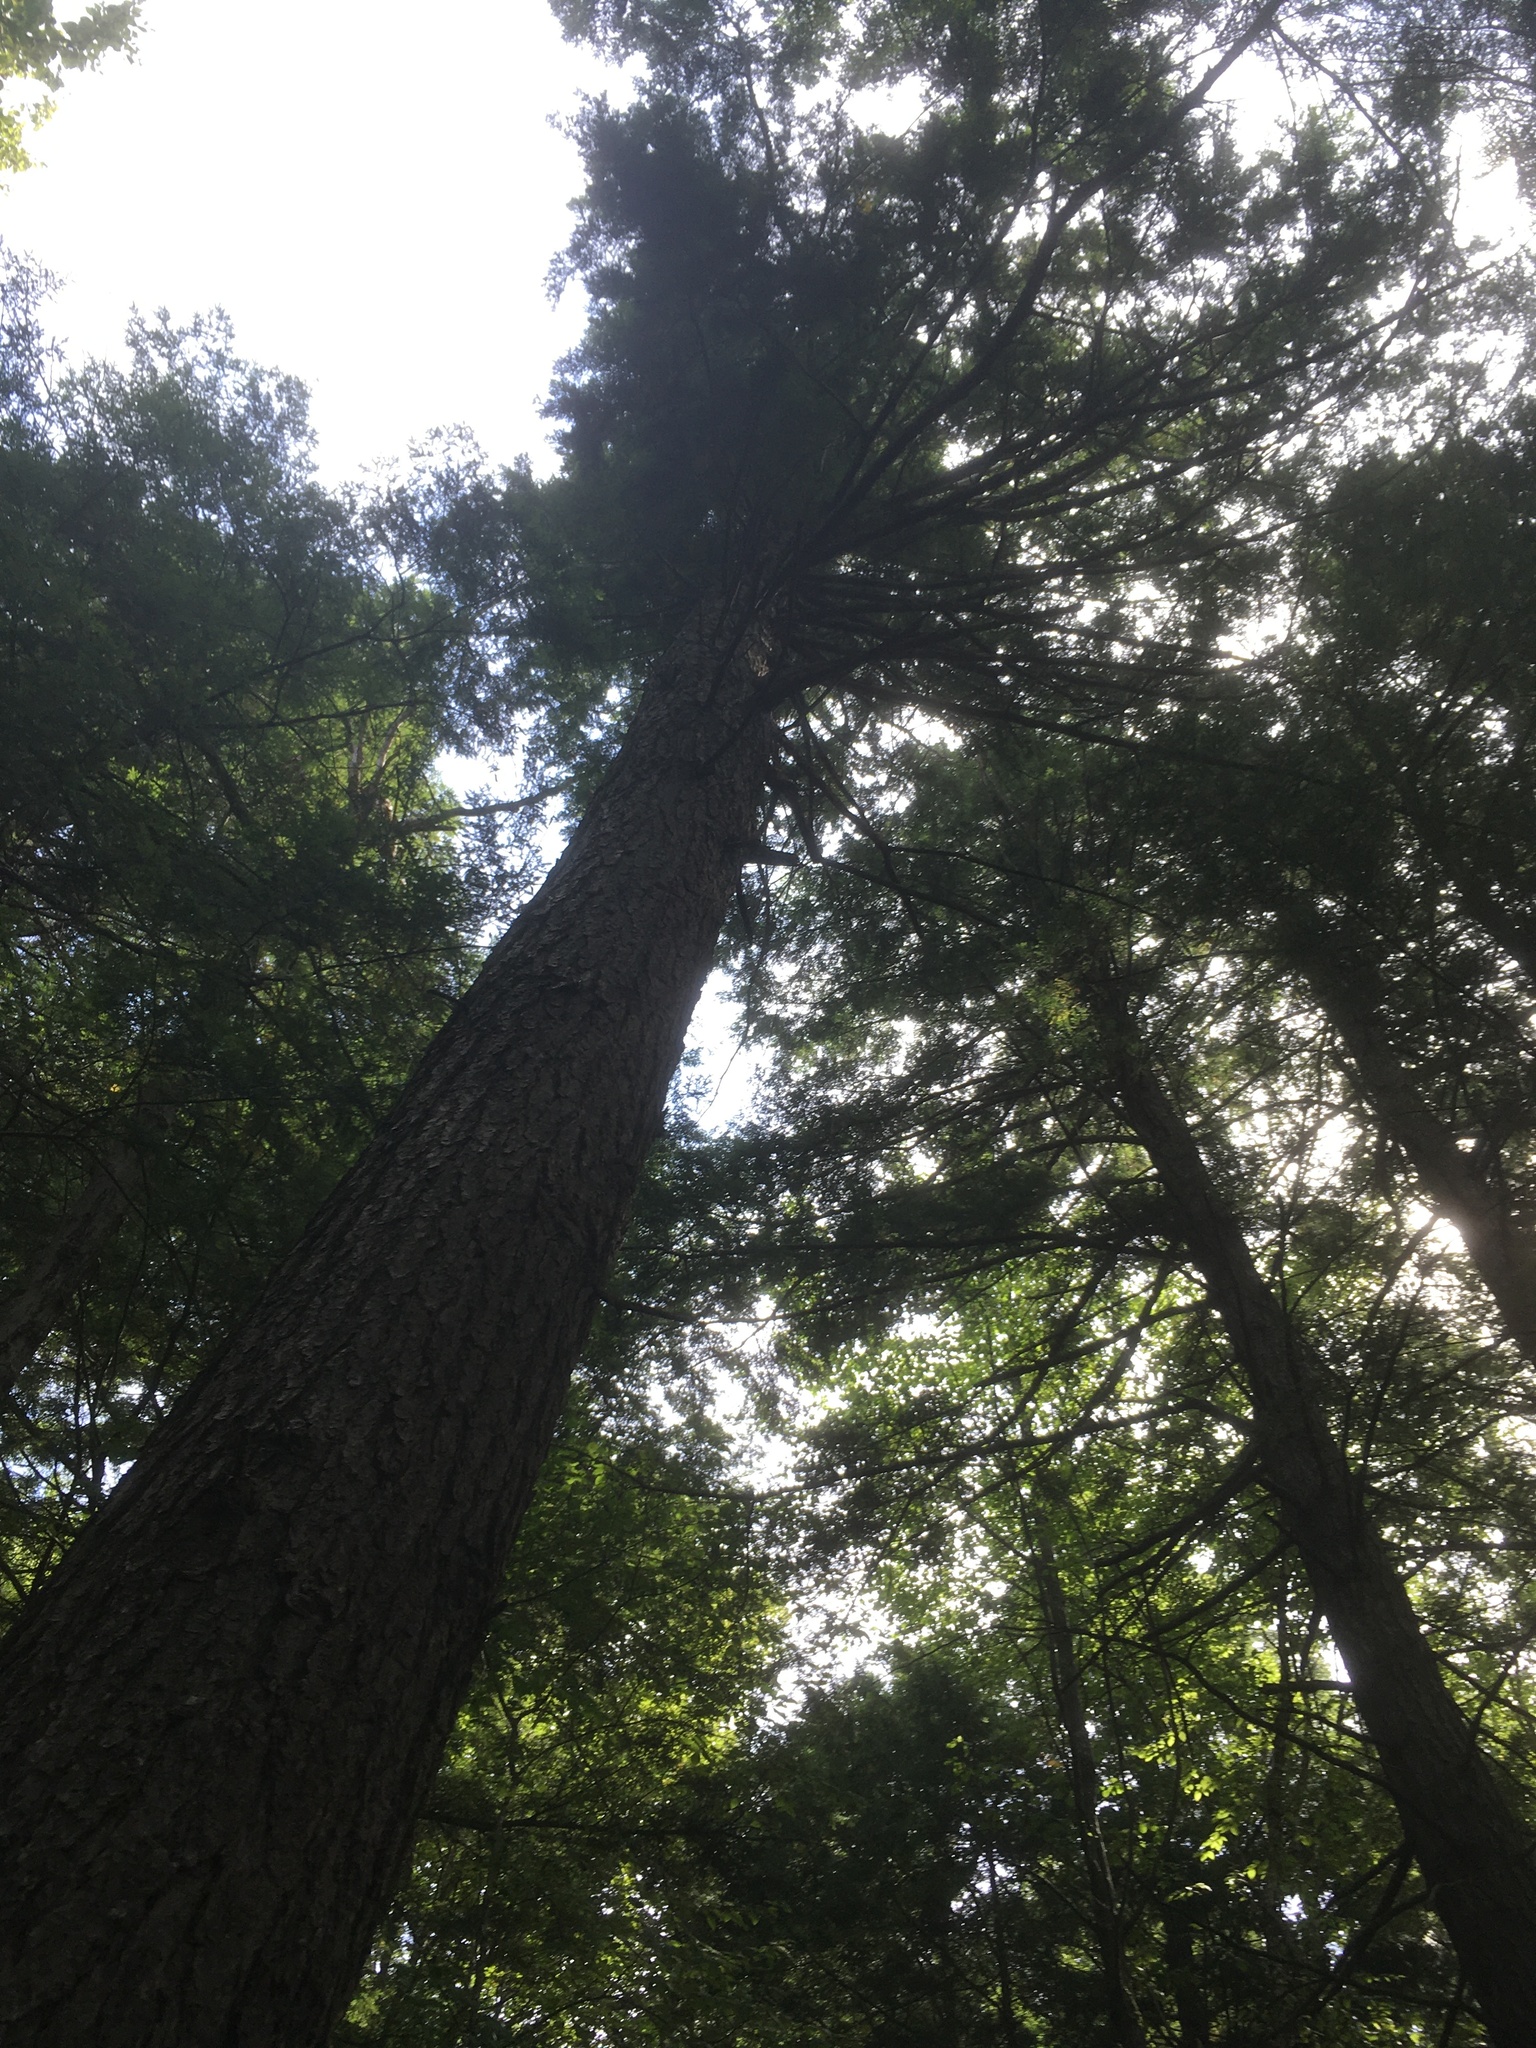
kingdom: Plantae
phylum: Tracheophyta
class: Pinopsida
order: Pinales
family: Pinaceae
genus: Tsuga
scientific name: Tsuga canadensis
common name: Eastern hemlock
